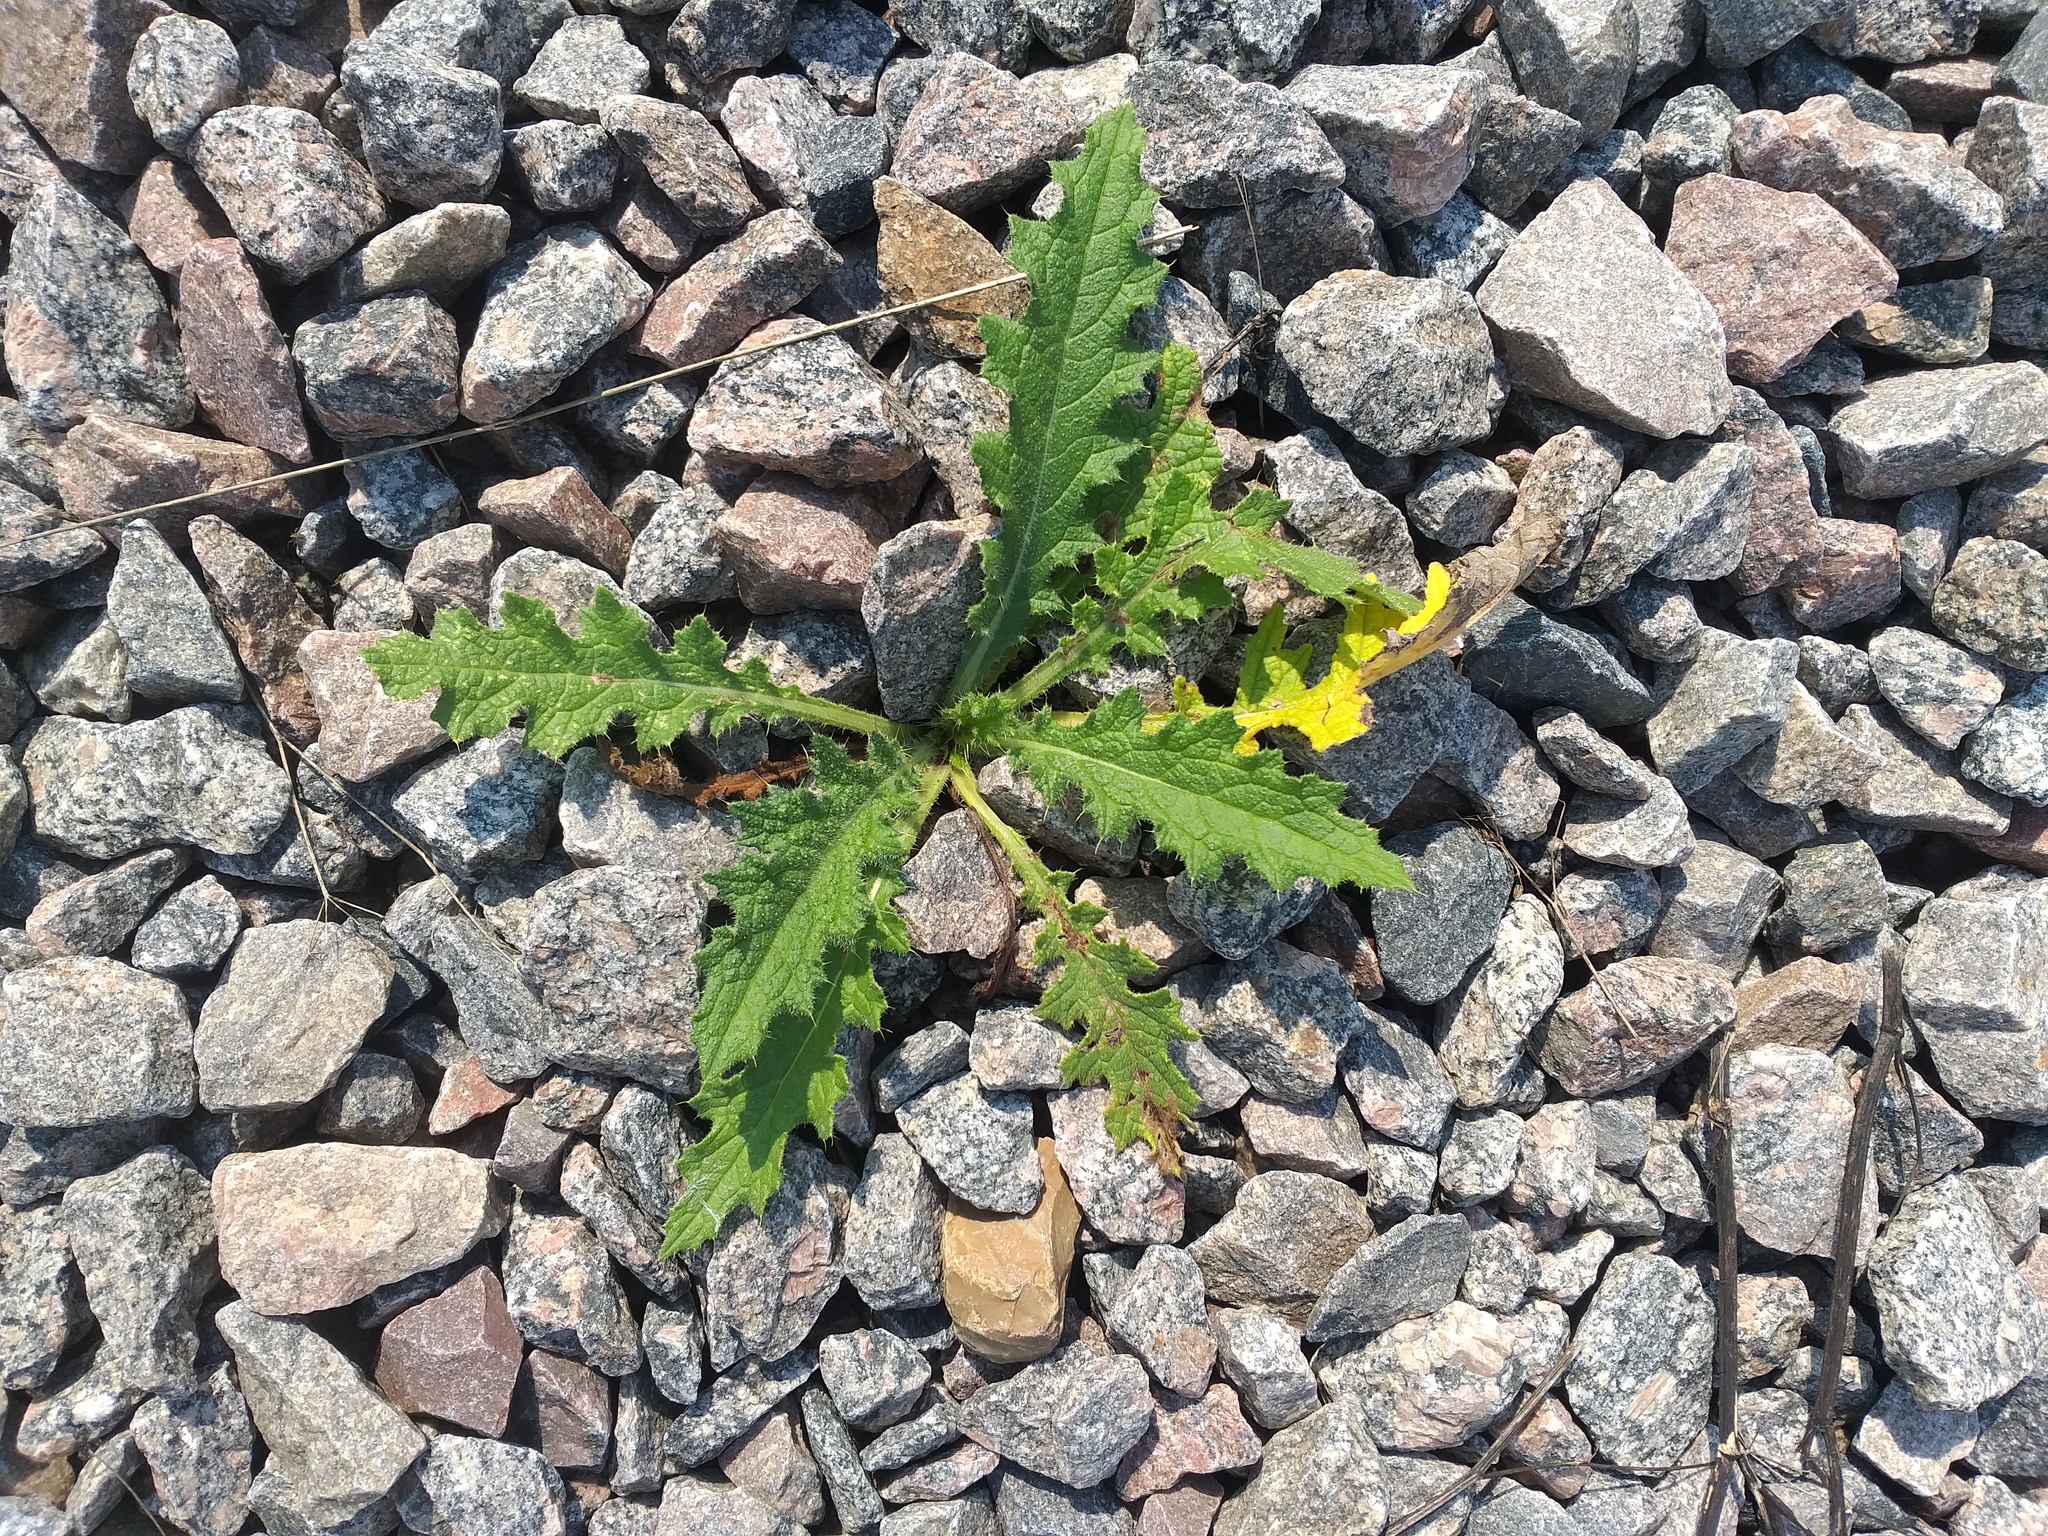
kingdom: Plantae
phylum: Tracheophyta
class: Magnoliopsida
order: Asterales
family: Asteraceae
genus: Cirsium
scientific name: Cirsium vulgare
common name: Bull thistle
